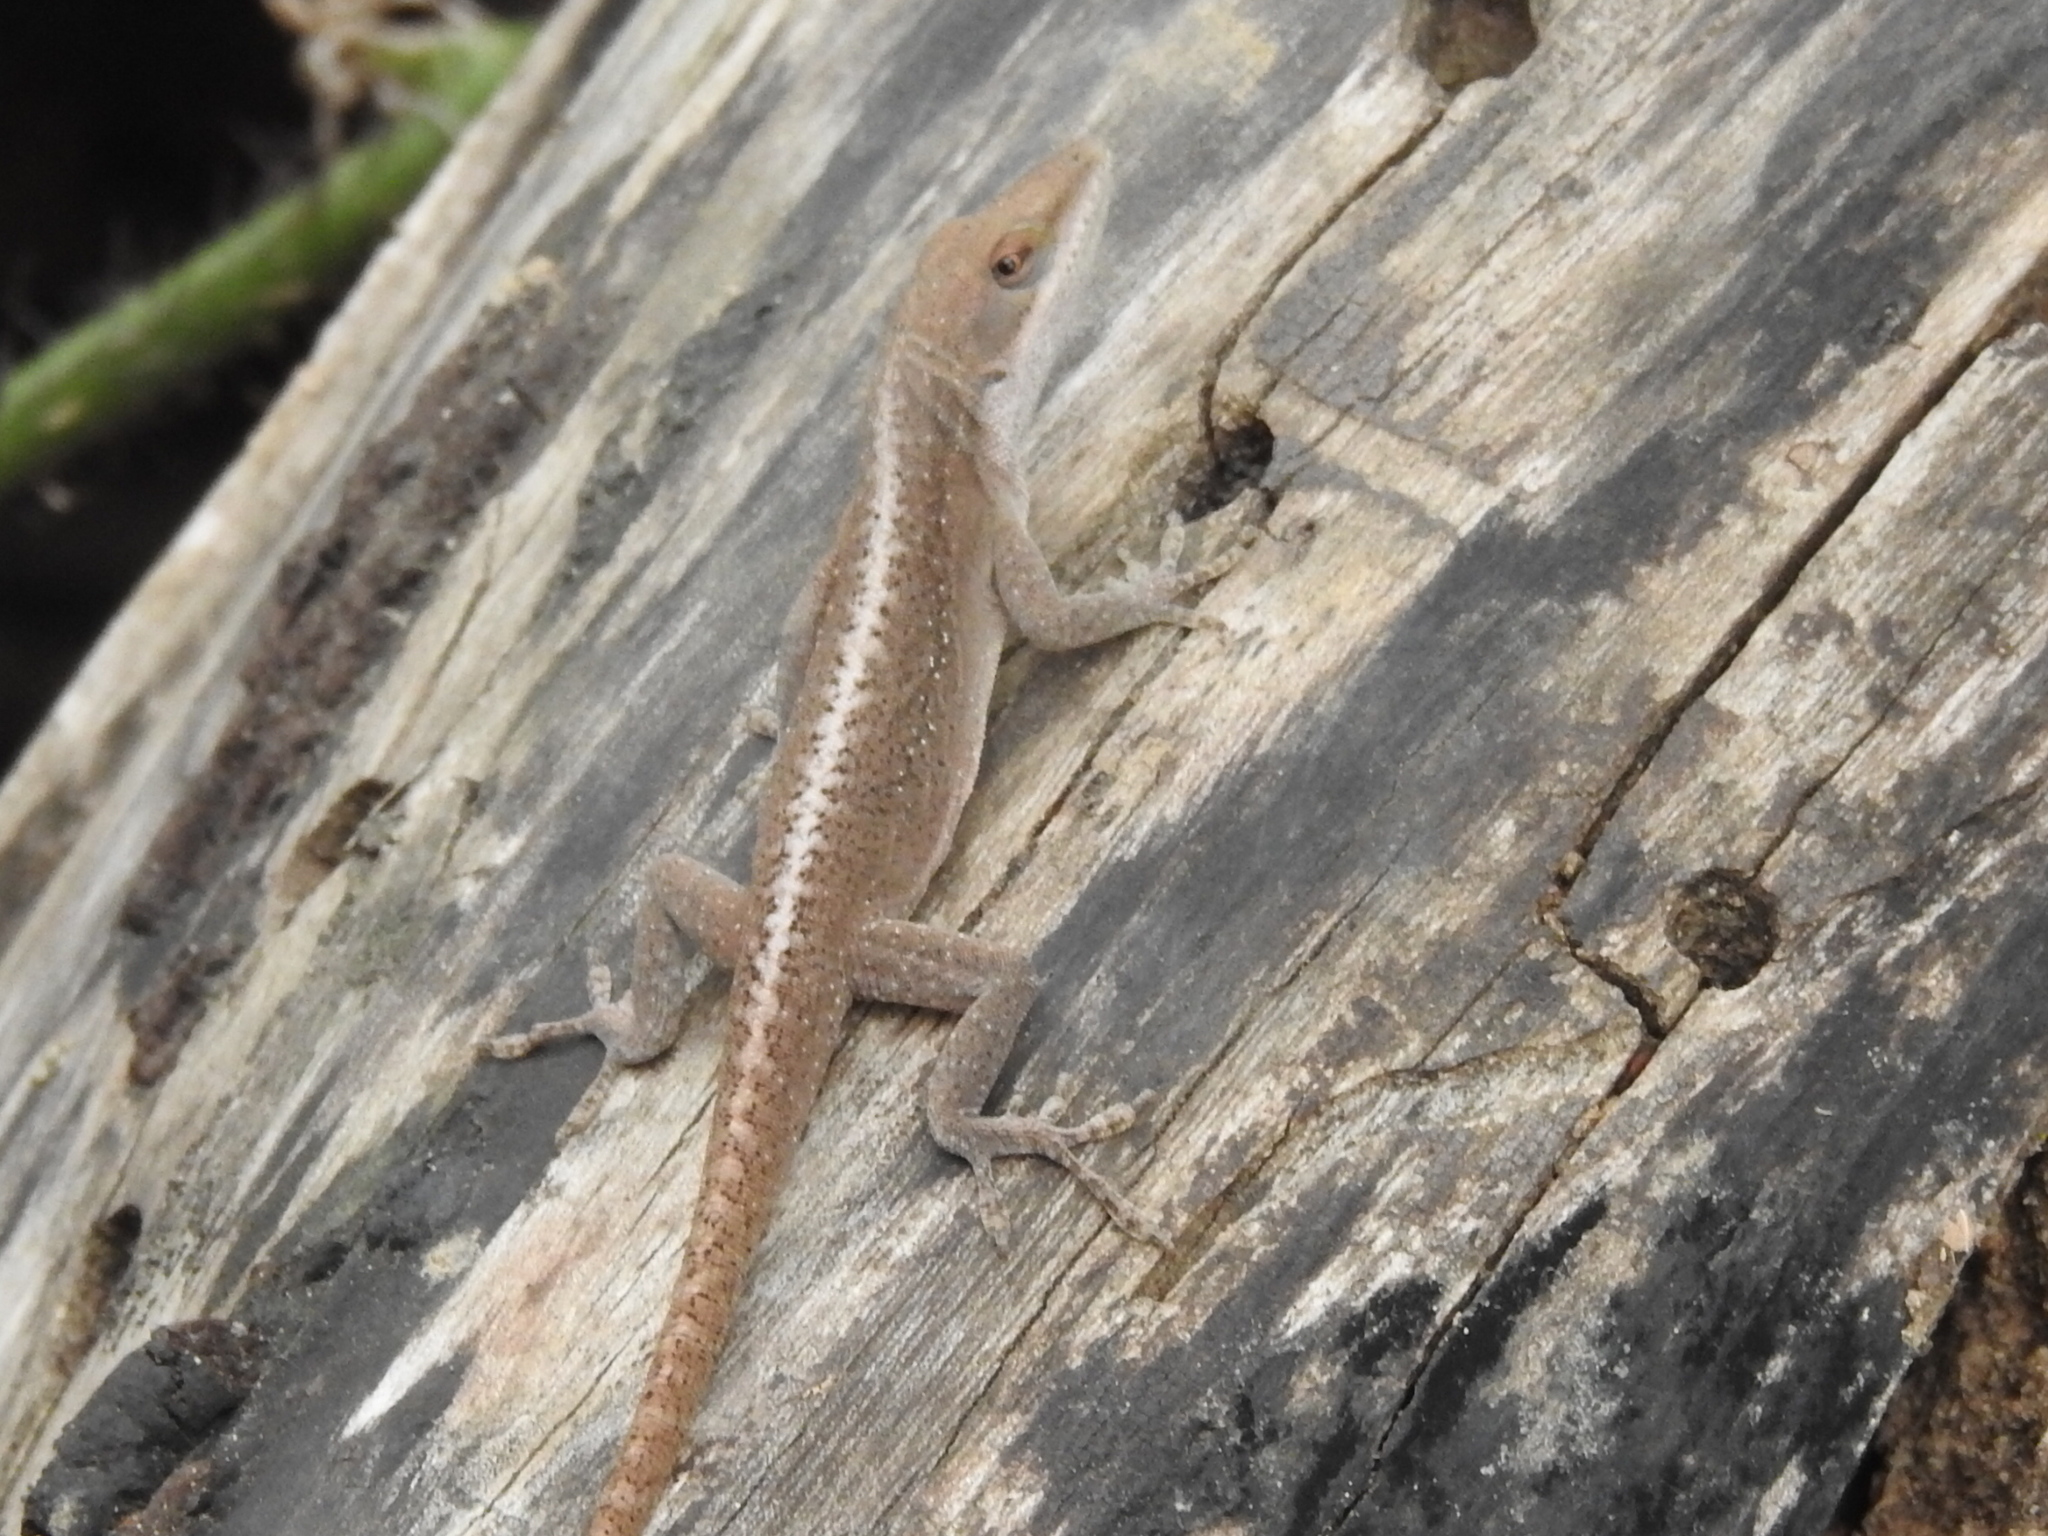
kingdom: Animalia
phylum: Chordata
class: Squamata
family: Dactyloidae
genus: Anolis
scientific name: Anolis carolinensis
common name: Green anole
